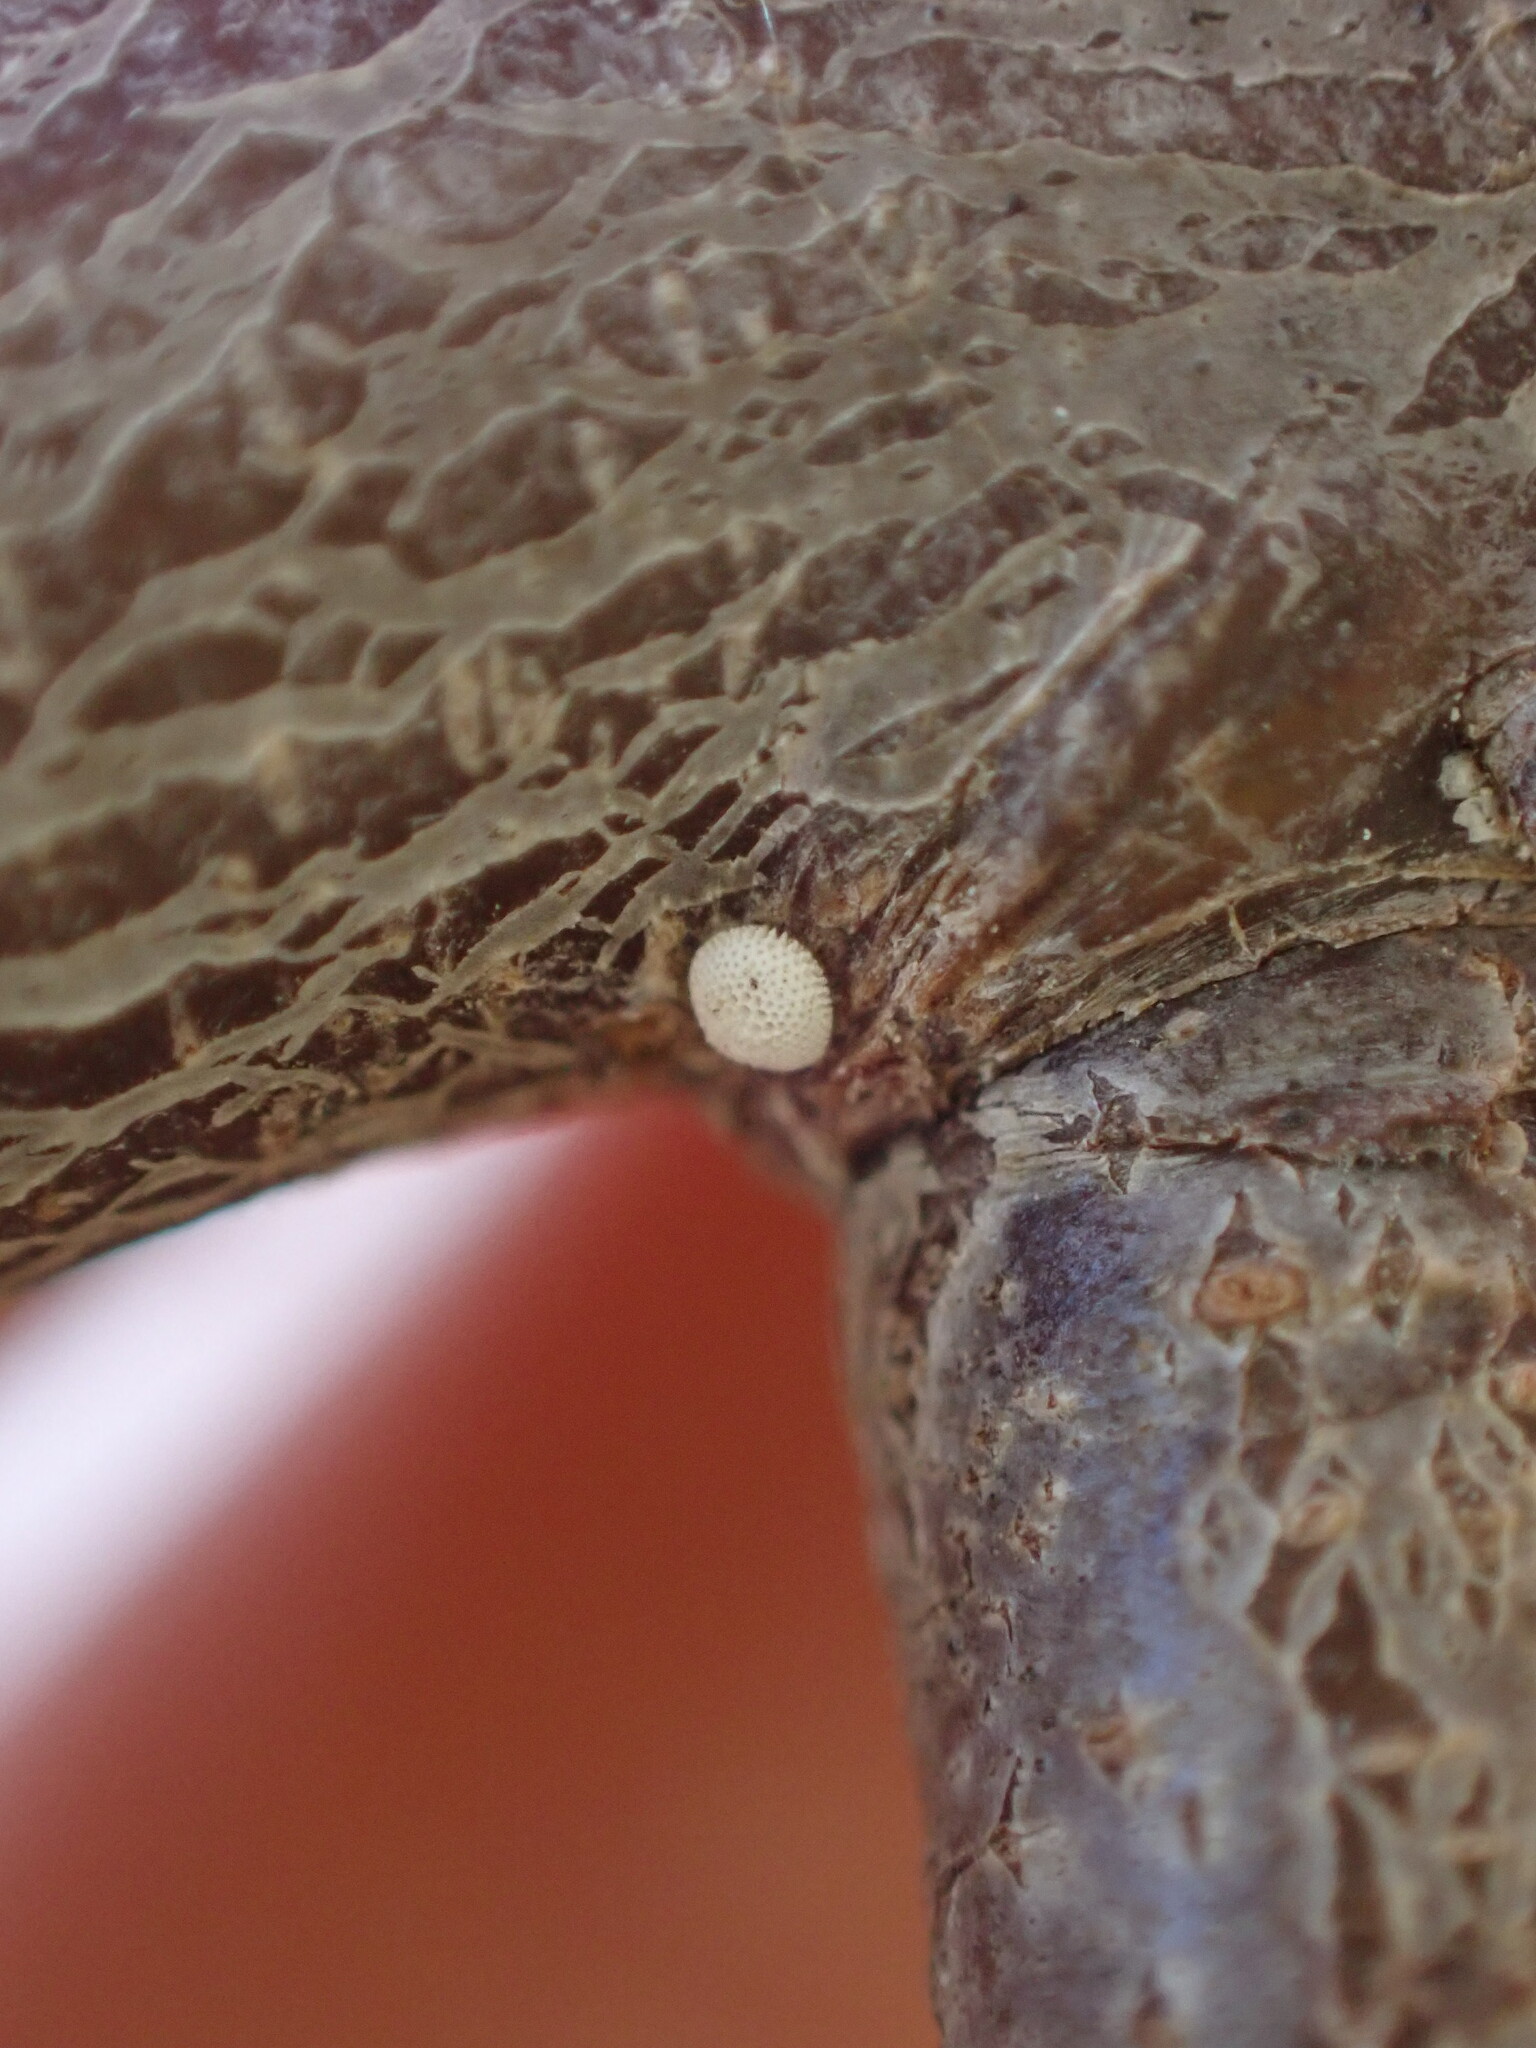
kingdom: Animalia
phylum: Arthropoda
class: Insecta
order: Lepidoptera
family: Lycaenidae
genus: Thecla
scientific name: Thecla betulae
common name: Brown hairstreak
